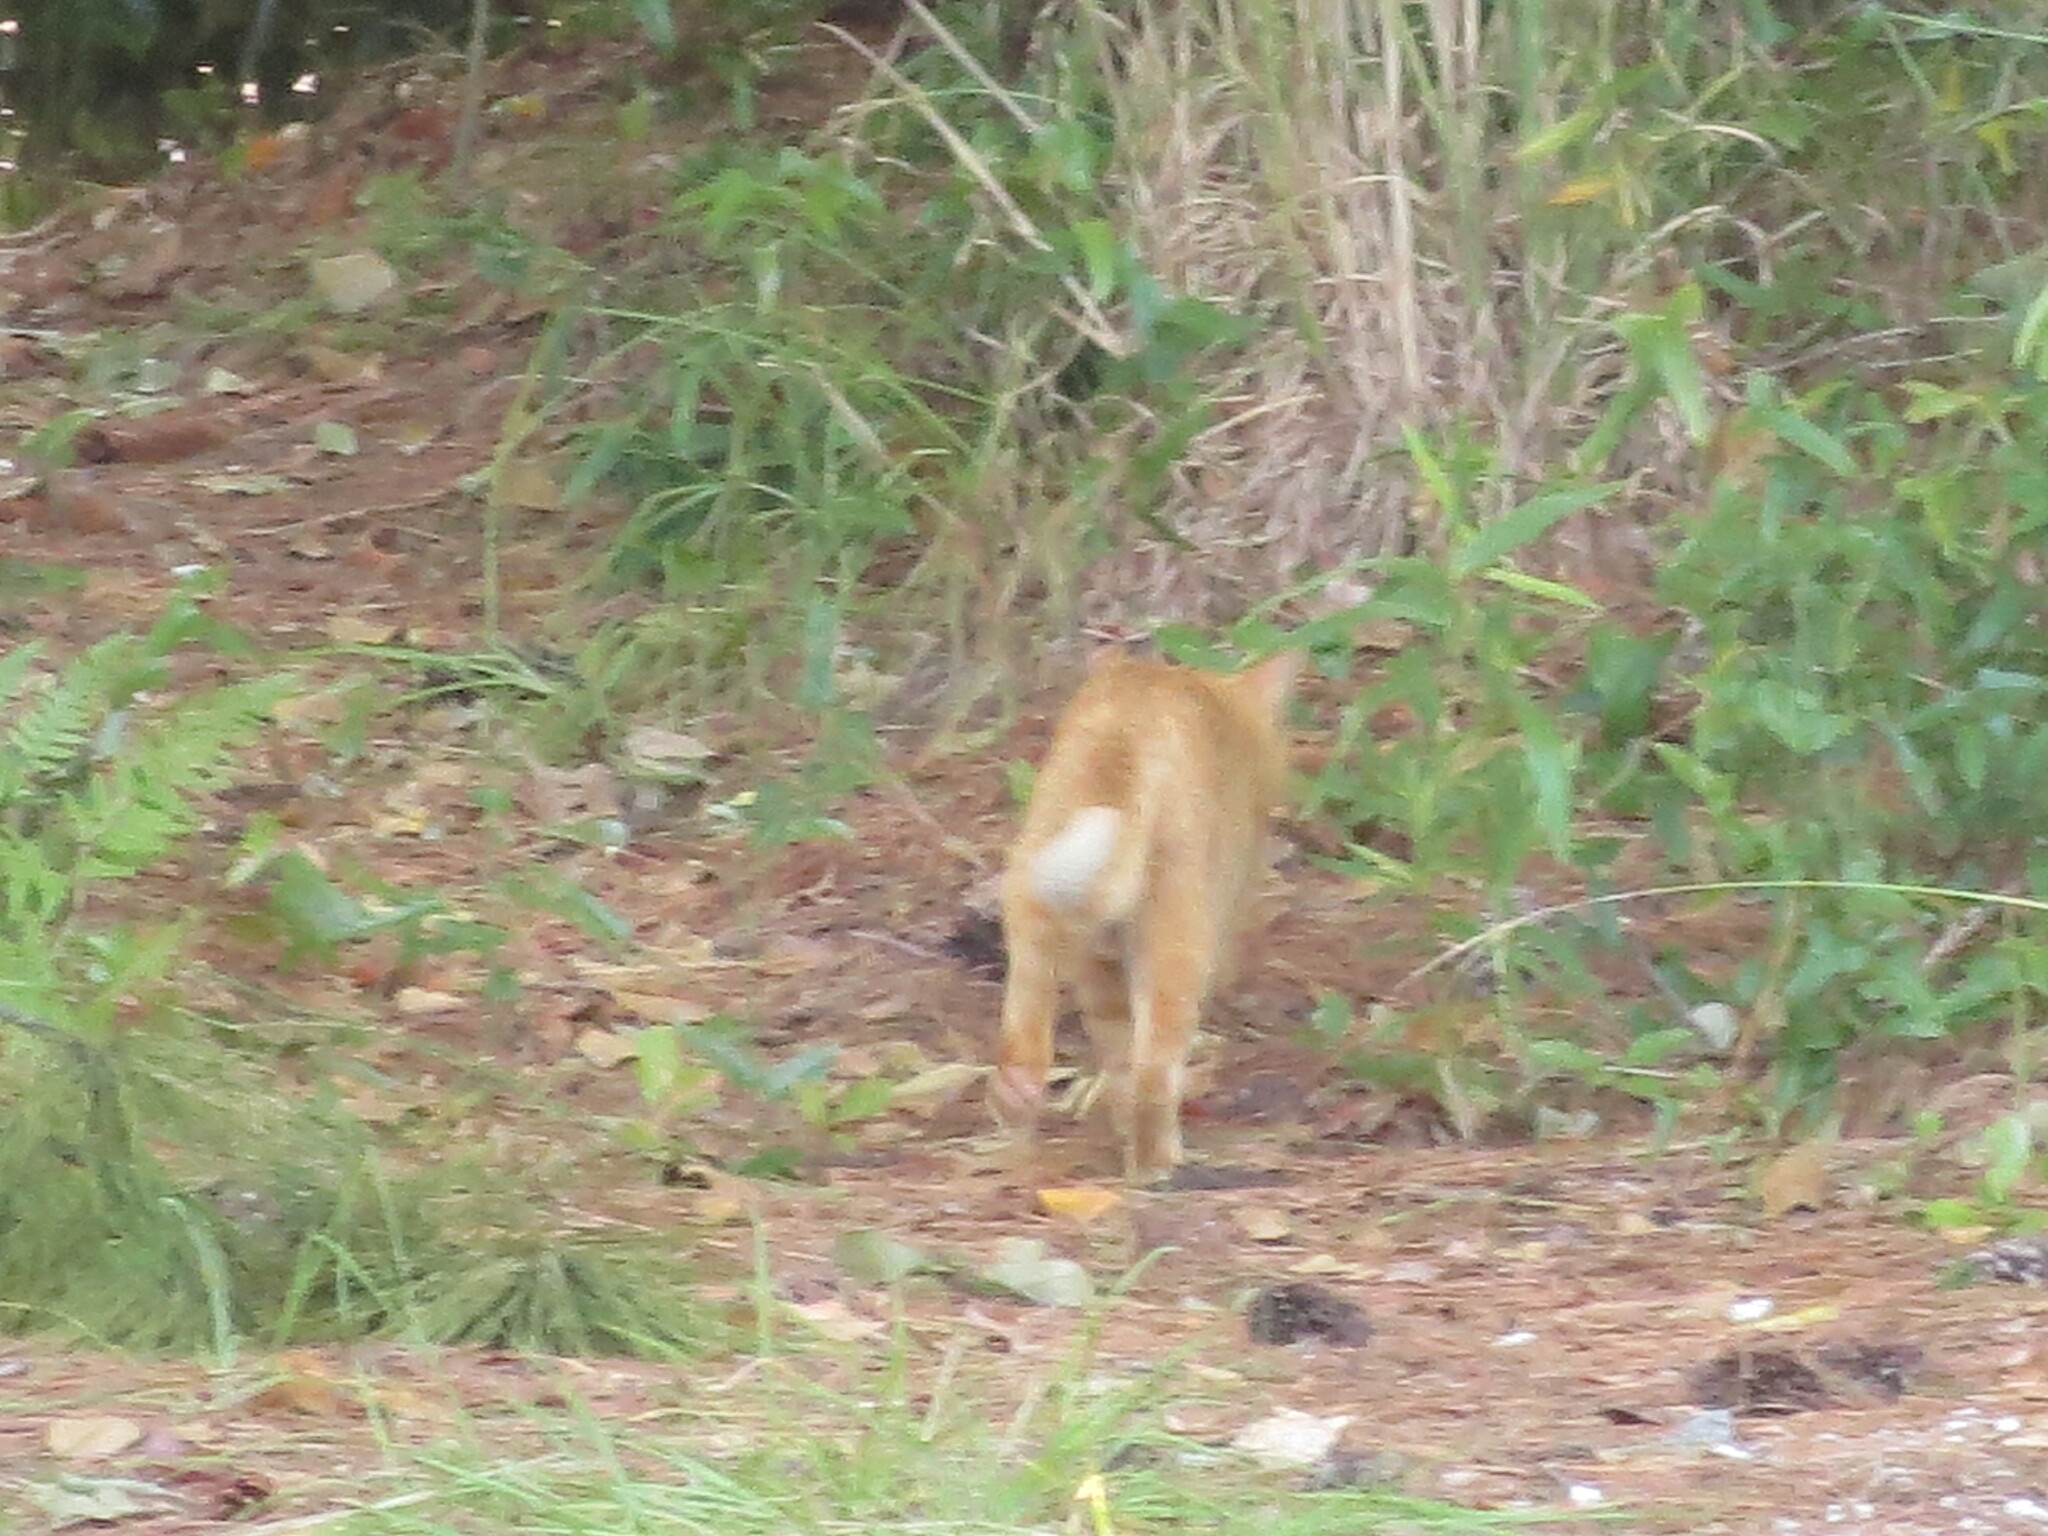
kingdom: Animalia
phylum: Chordata
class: Mammalia
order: Carnivora
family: Felidae
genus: Felis
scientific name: Felis catus
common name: Domestic cat
